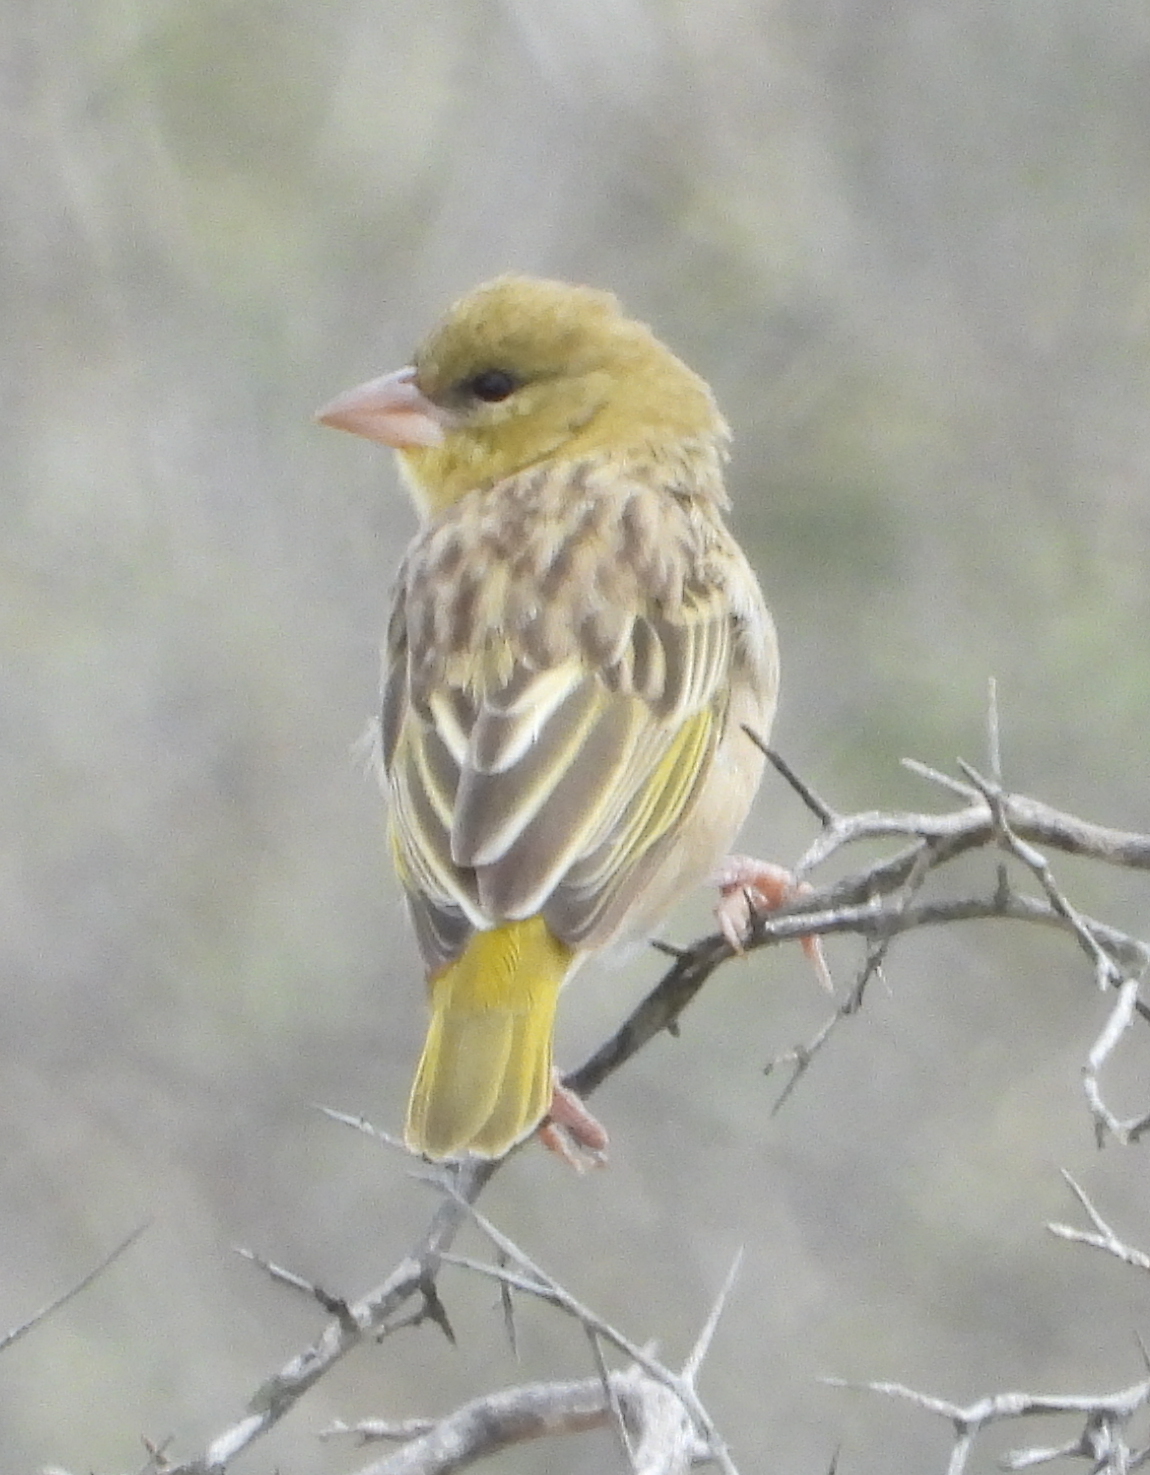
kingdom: Animalia
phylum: Chordata
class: Aves
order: Passeriformes
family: Ploceidae
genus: Ploceus
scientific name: Ploceus velatus
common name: Southern masked weaver
